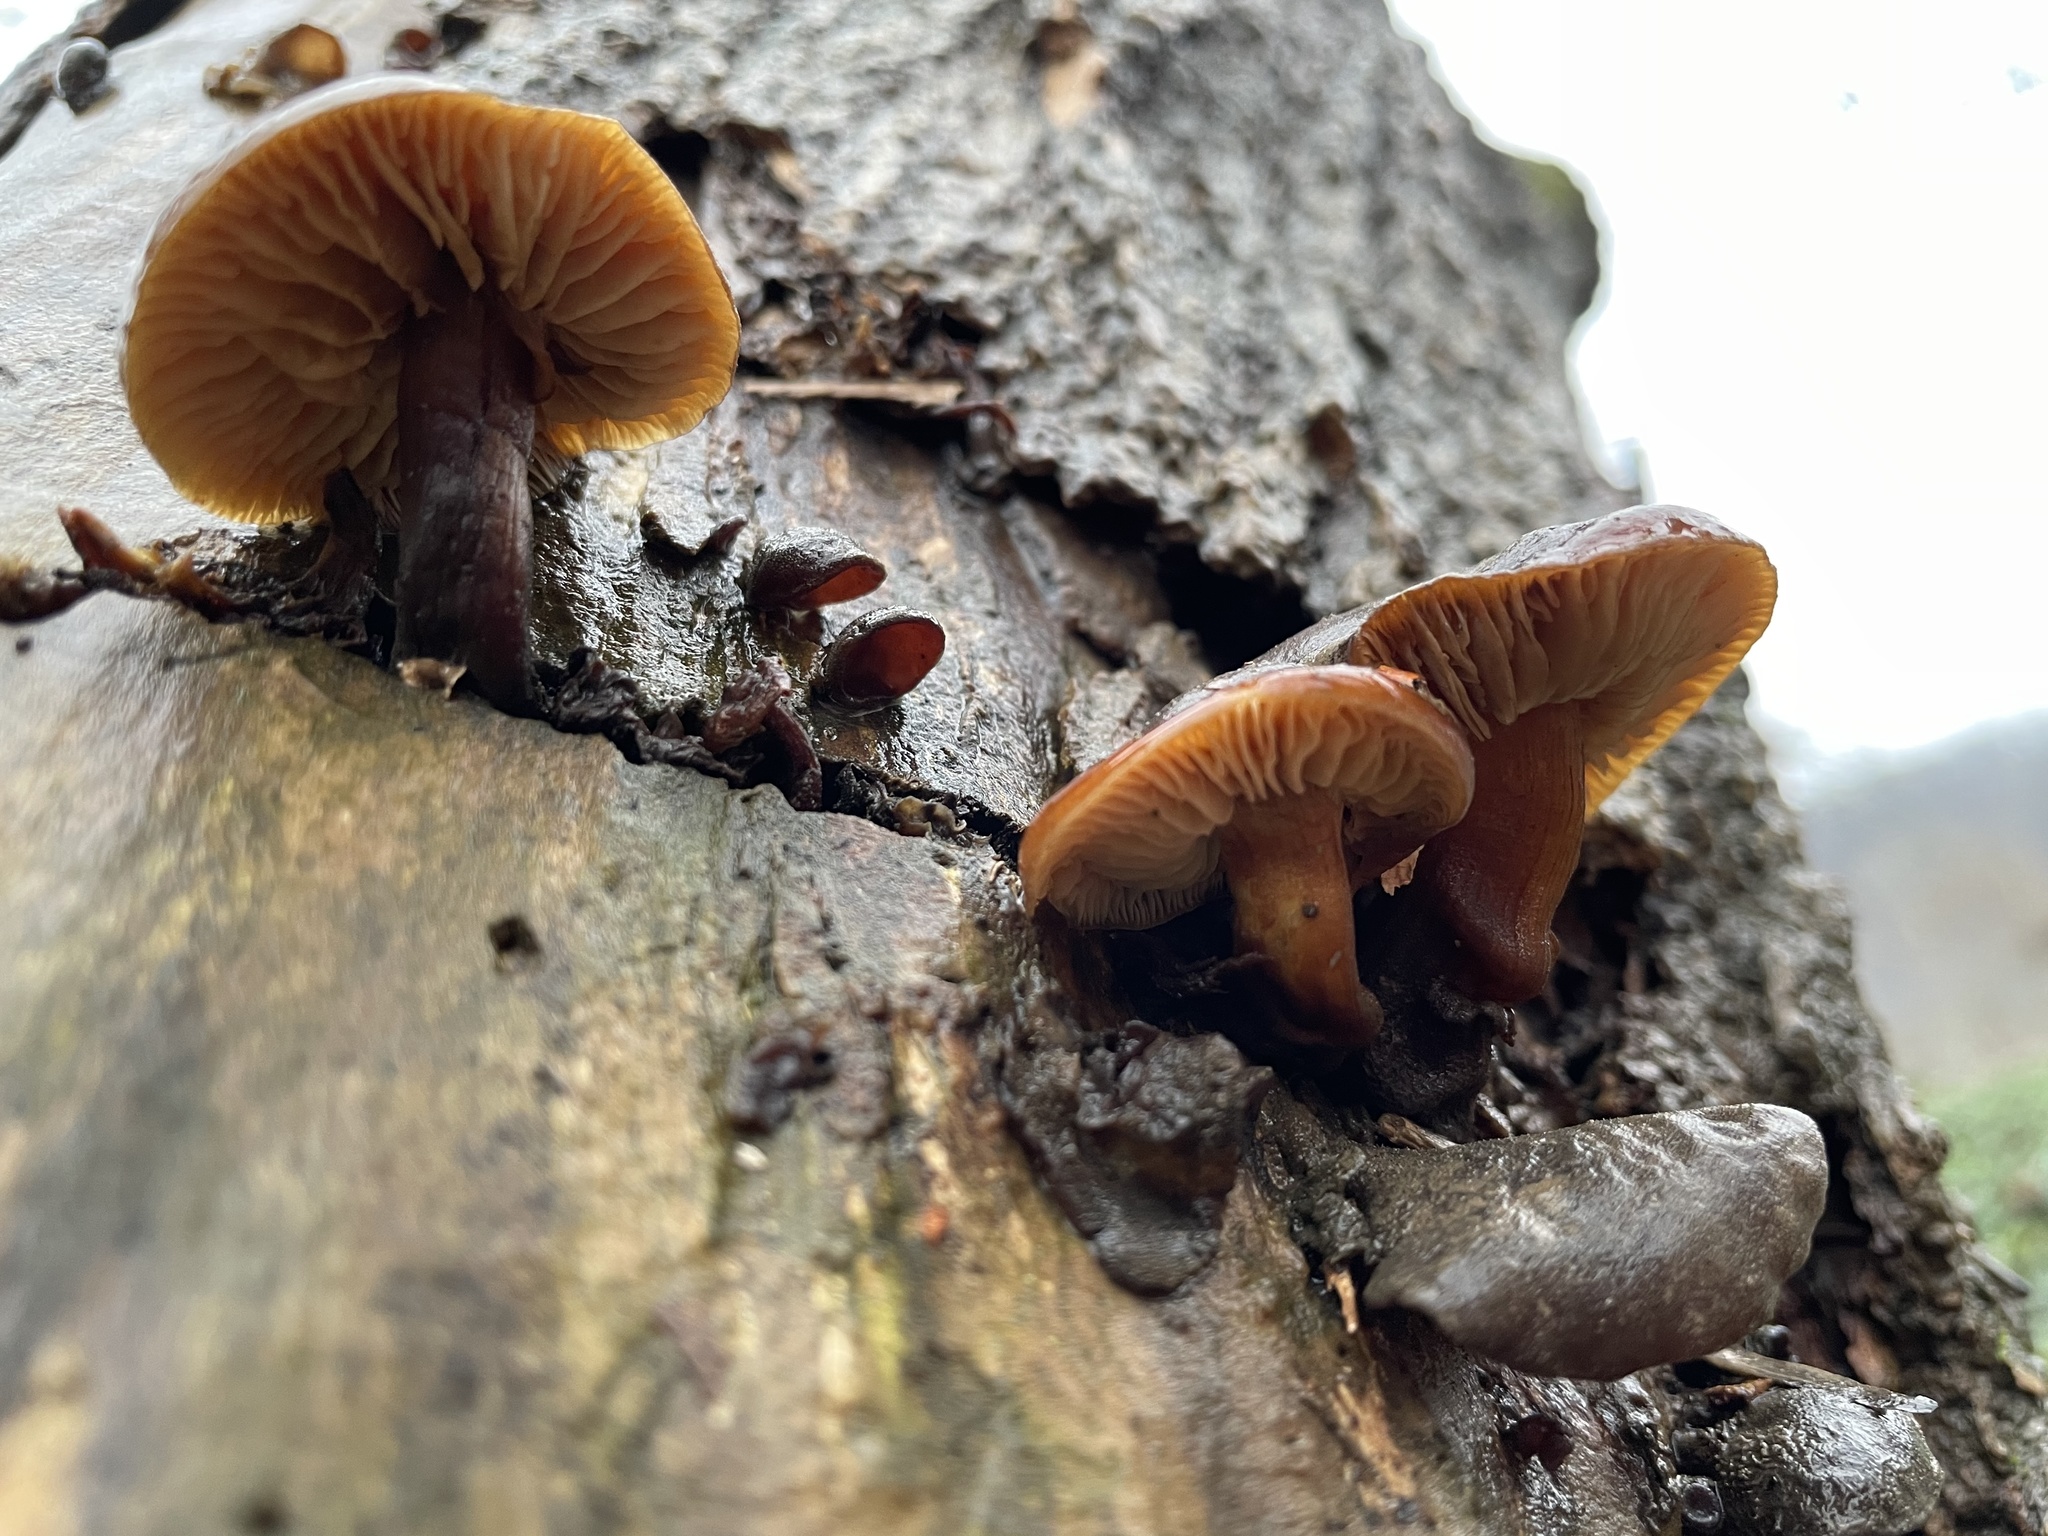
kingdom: Fungi
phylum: Basidiomycota
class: Agaricomycetes
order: Agaricales
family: Physalacriaceae
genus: Flammulina
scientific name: Flammulina velutipes
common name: Velvet shank
